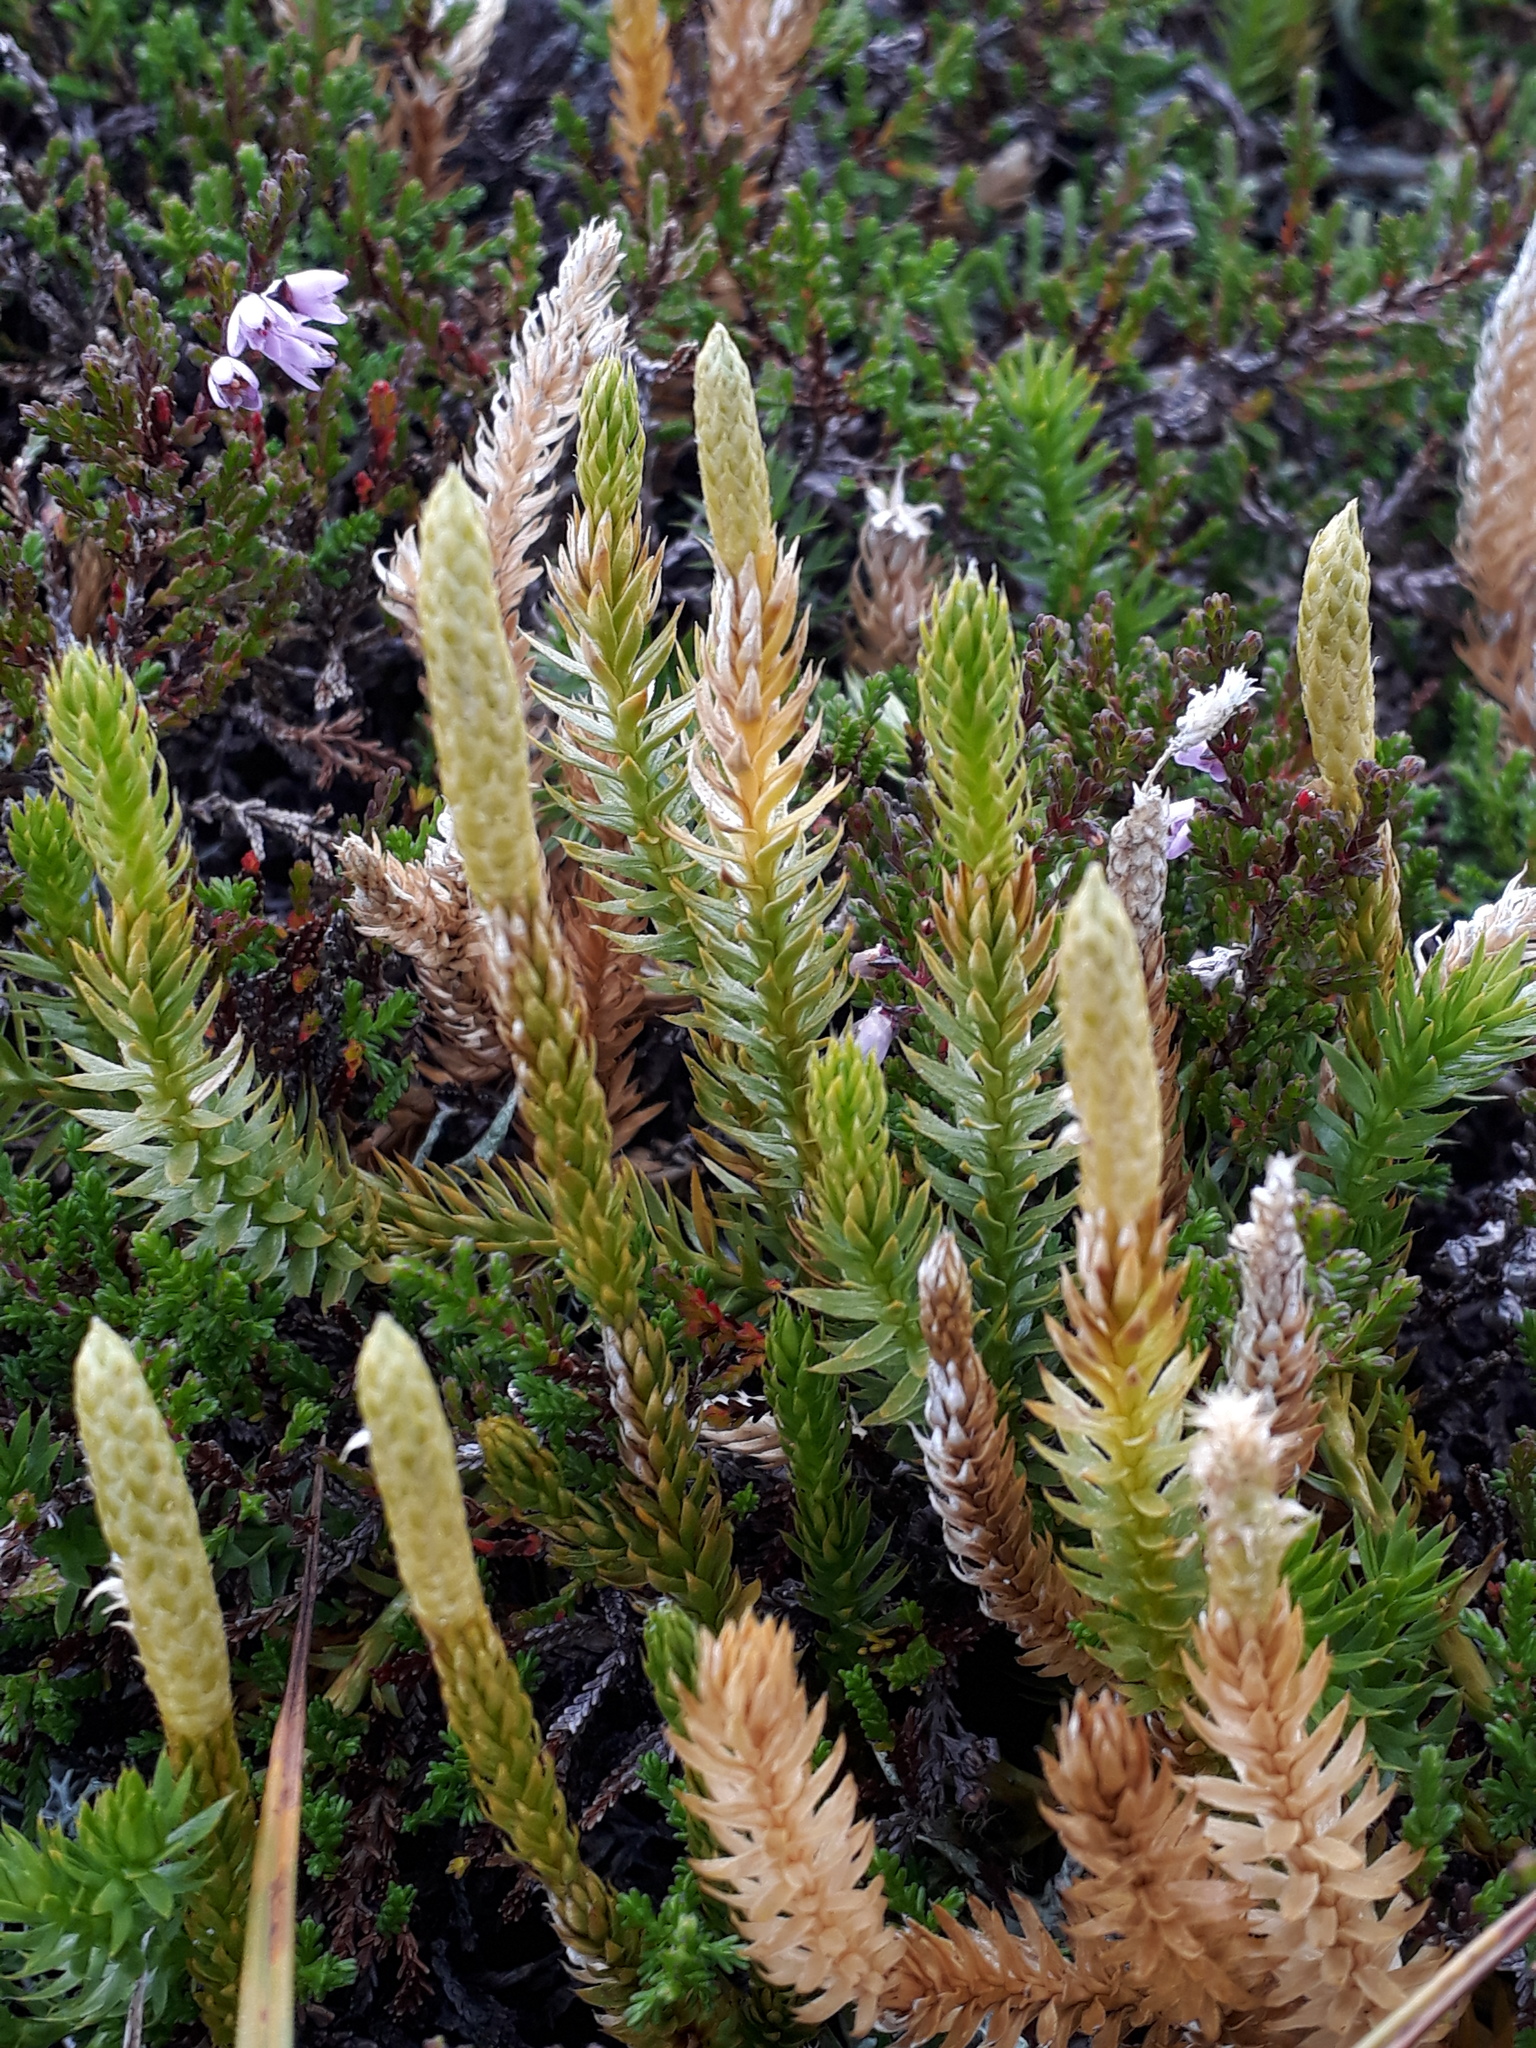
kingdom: Plantae
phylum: Tracheophyta
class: Lycopodiopsida
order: Lycopodiales
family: Lycopodiaceae
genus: Spinulum
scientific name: Spinulum annotinum
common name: Interrupted club-moss
